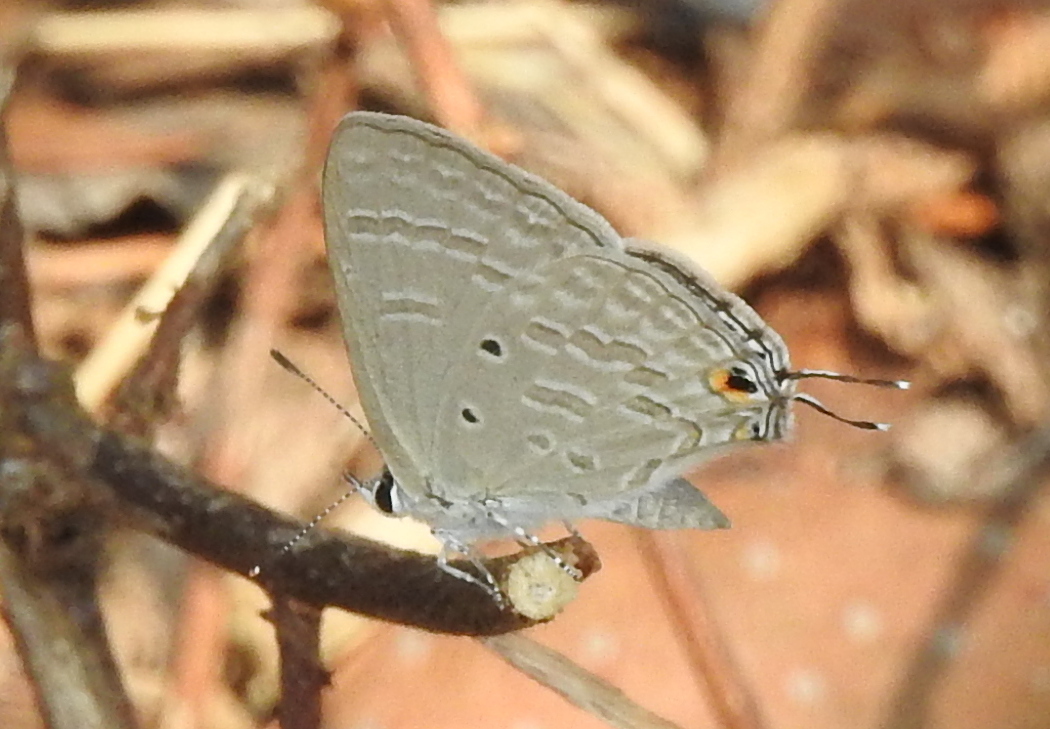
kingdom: Animalia
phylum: Arthropoda
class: Insecta
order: Lepidoptera
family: Lycaenidae
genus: Catochrysops
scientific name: Catochrysops strabo
